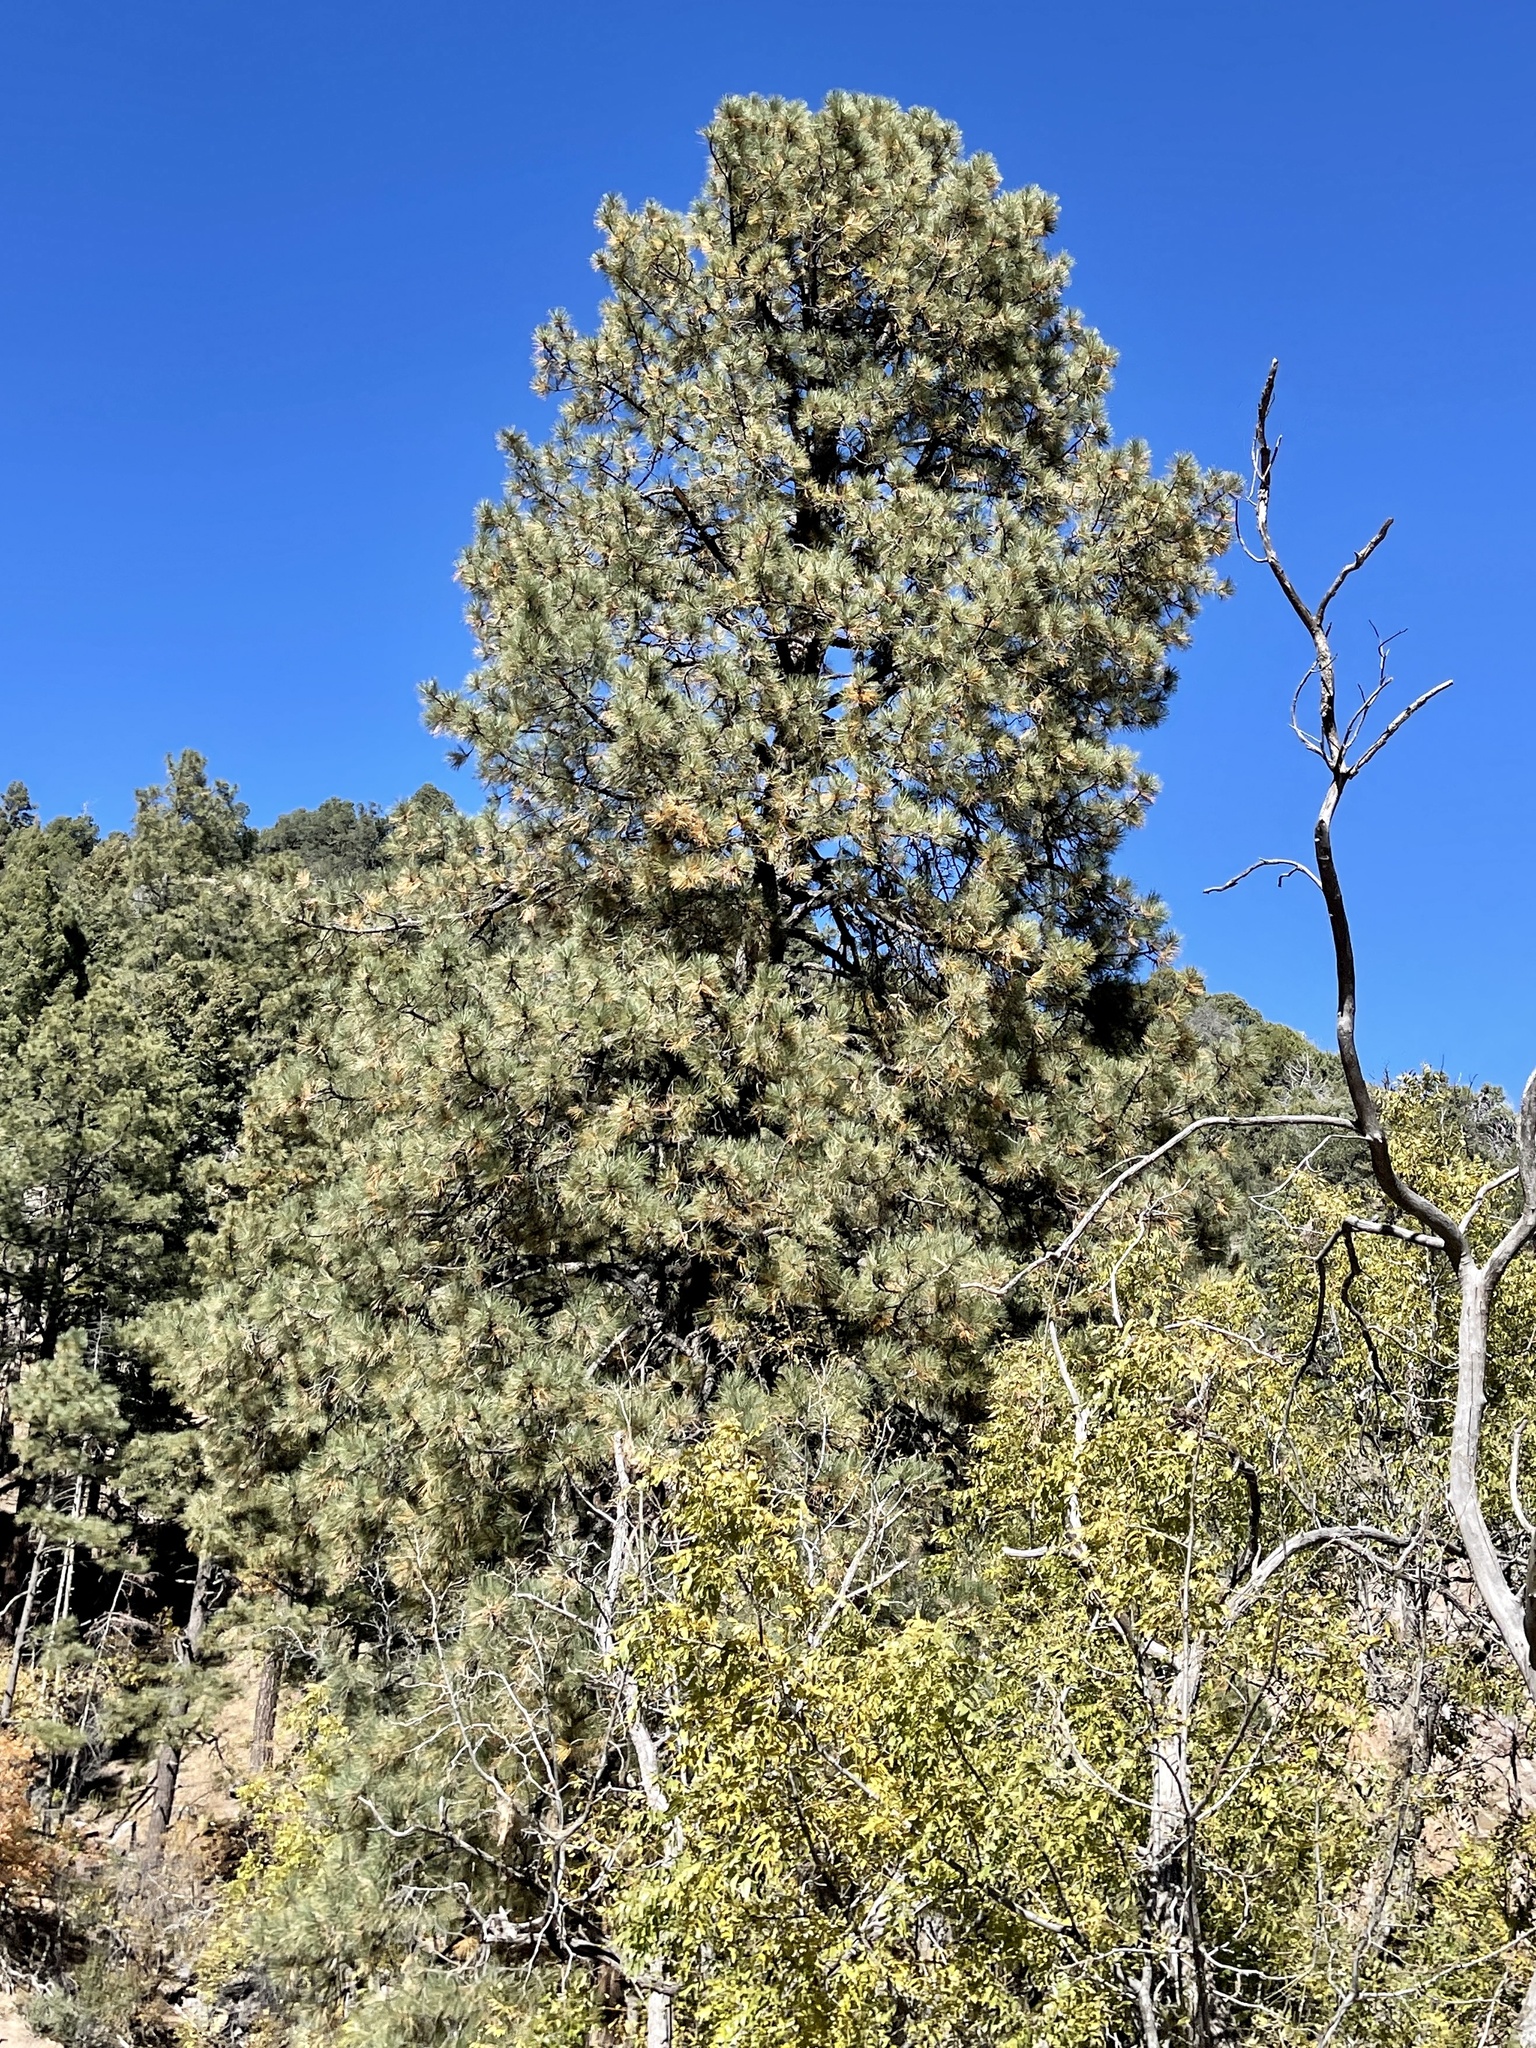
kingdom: Plantae
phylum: Tracheophyta
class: Pinopsida
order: Pinales
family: Pinaceae
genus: Pinus
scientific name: Pinus ponderosa
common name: Western yellow-pine
